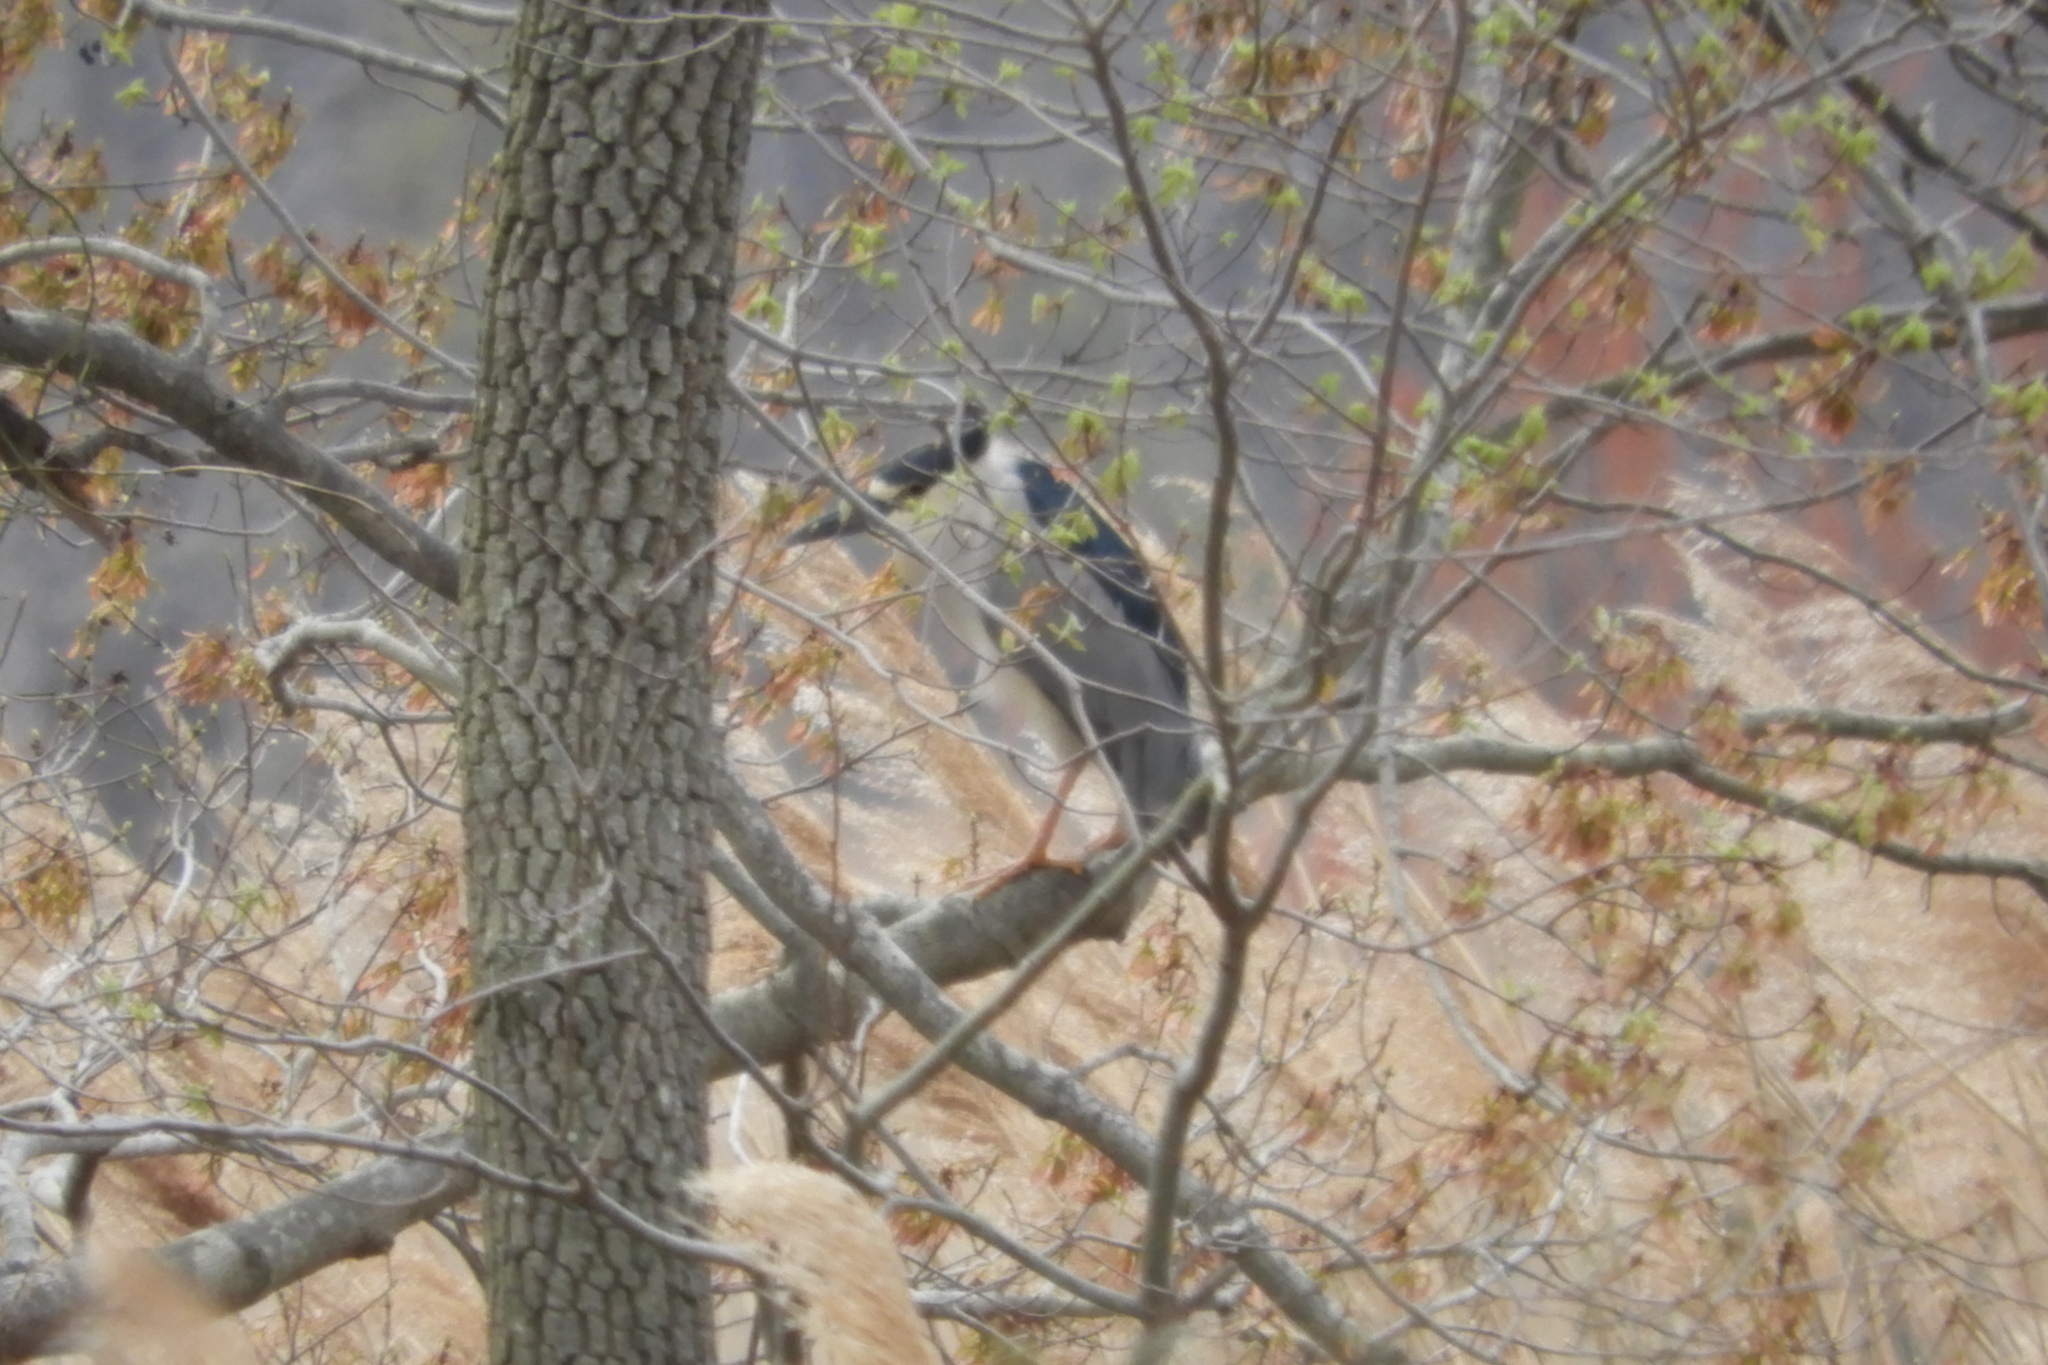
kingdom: Animalia
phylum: Chordata
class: Aves
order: Pelecaniformes
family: Ardeidae
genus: Nycticorax
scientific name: Nycticorax nycticorax
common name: Black-crowned night heron
